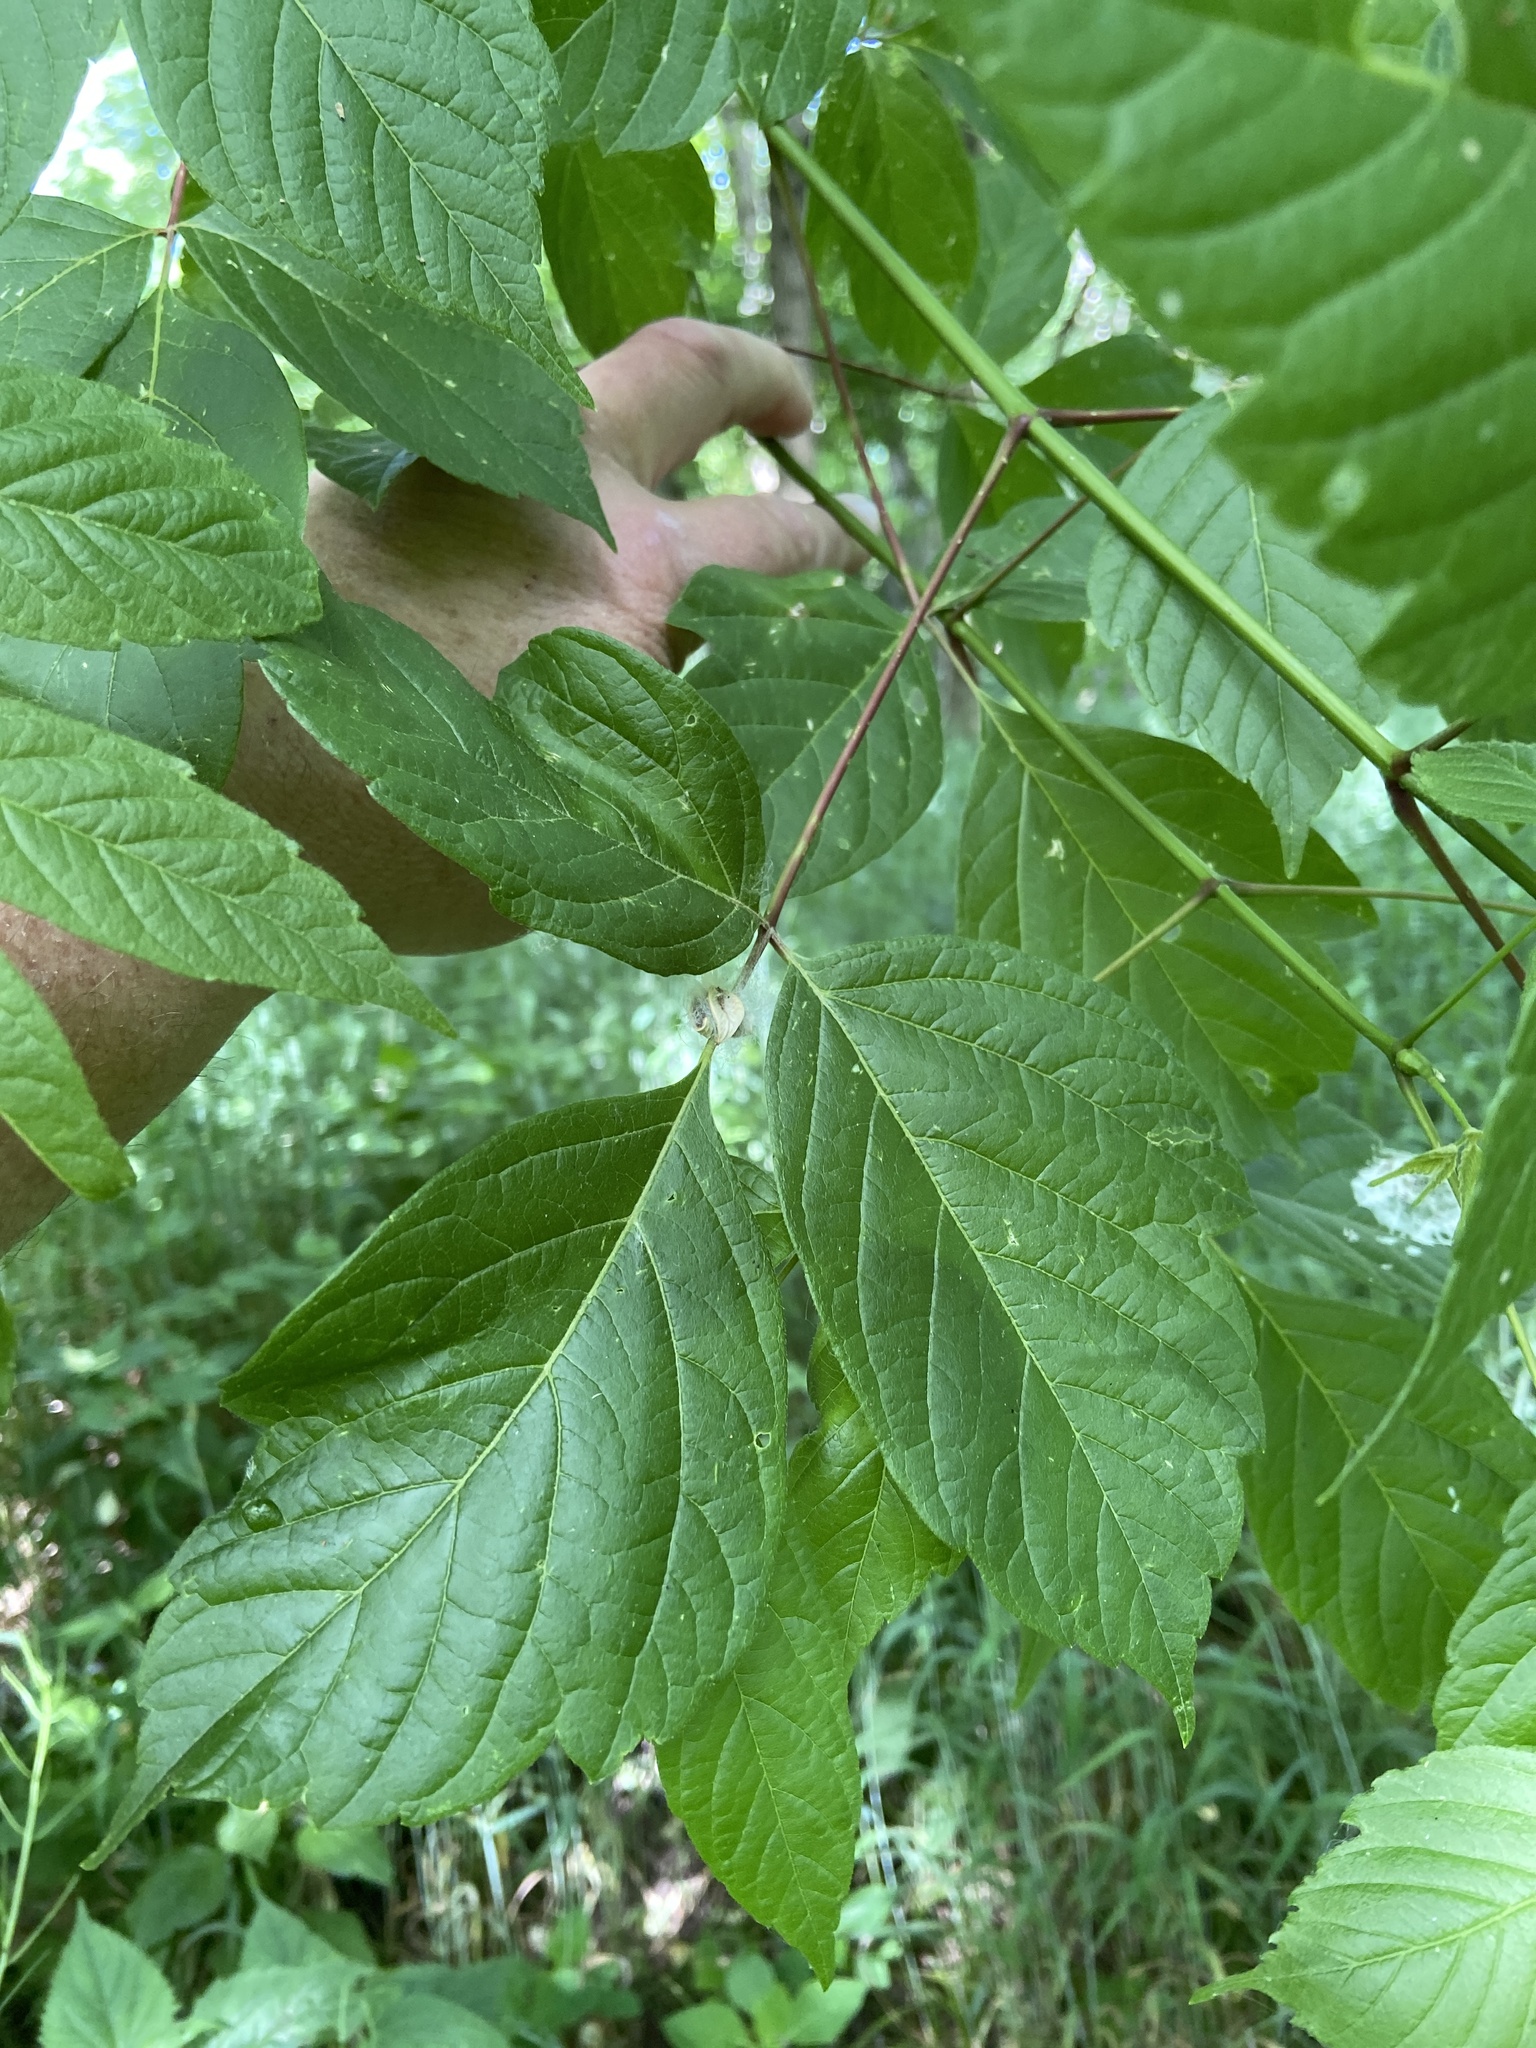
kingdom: Plantae
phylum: Tracheophyta
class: Magnoliopsida
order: Sapindales
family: Sapindaceae
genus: Acer
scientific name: Acer negundo
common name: Ashleaf maple
